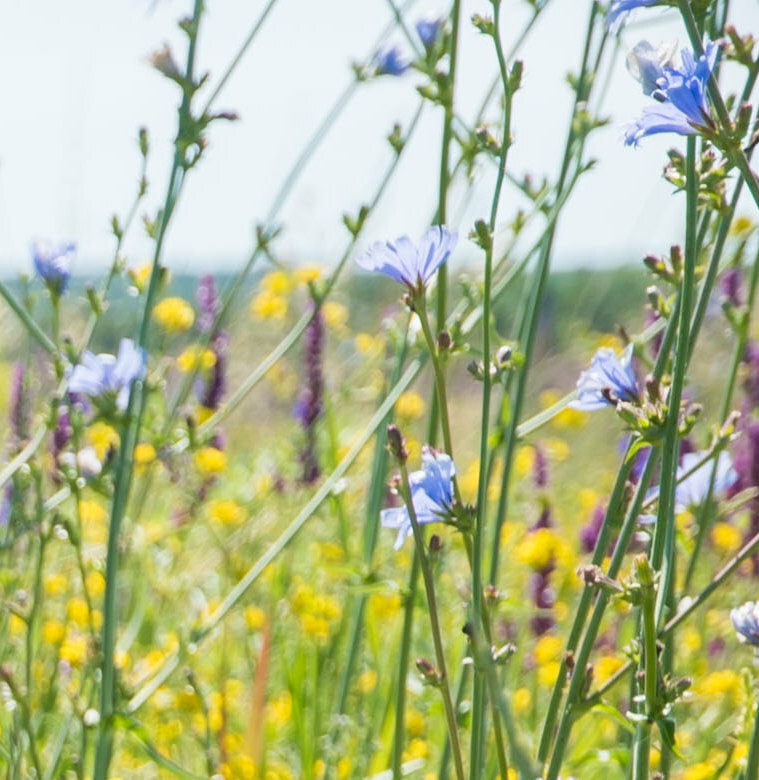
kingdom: Plantae
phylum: Tracheophyta
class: Magnoliopsida
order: Asterales
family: Asteraceae
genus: Cichorium
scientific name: Cichorium intybus
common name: Chicory
